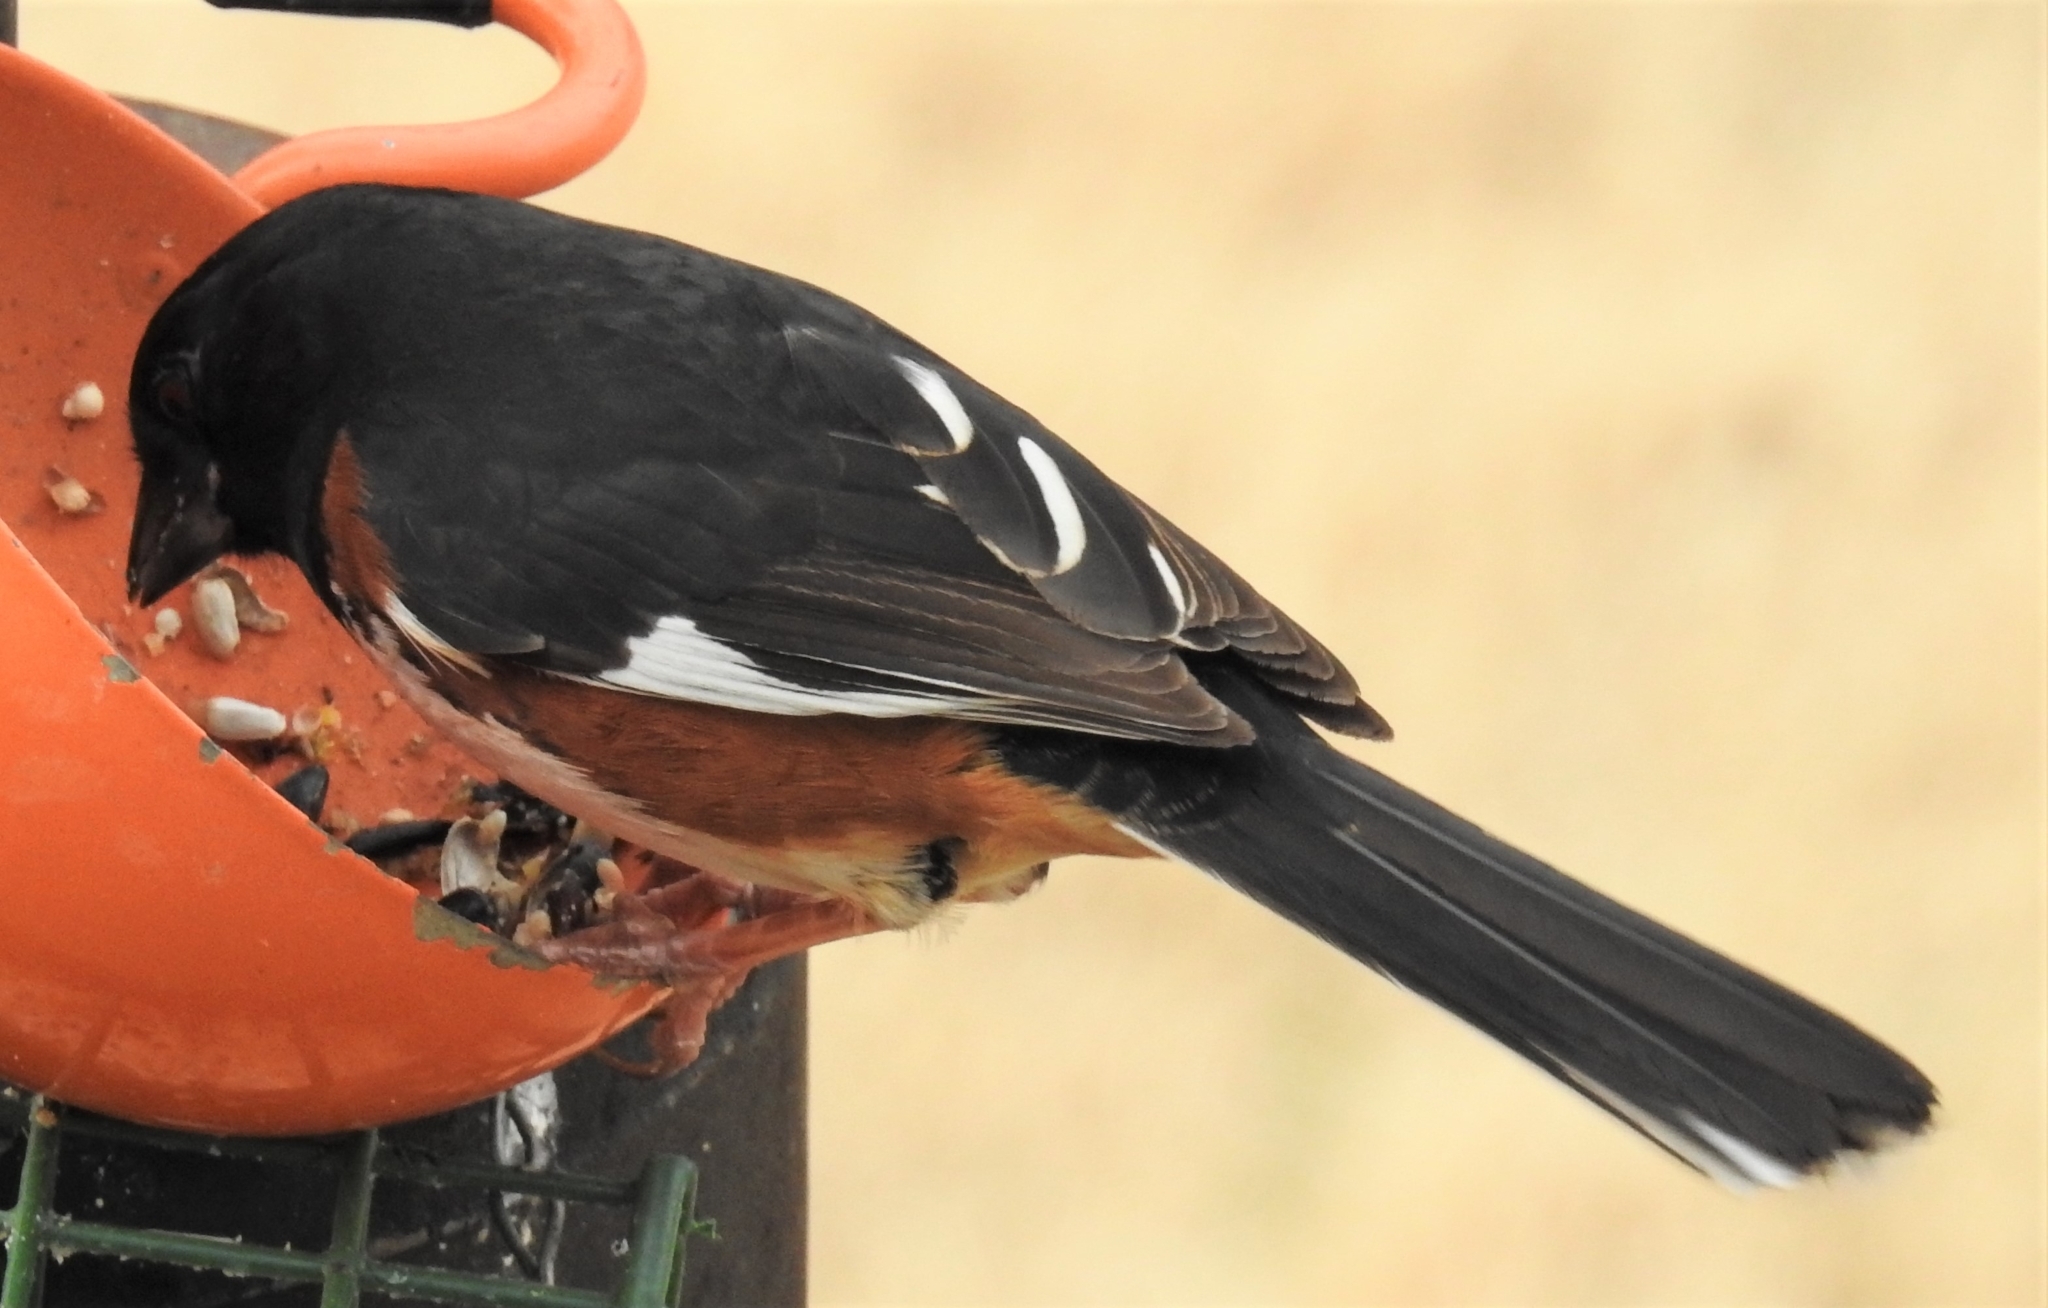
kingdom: Animalia
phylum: Chordata
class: Aves
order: Passeriformes
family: Passerellidae
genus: Pipilo
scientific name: Pipilo erythrophthalmus
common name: Eastern towhee
